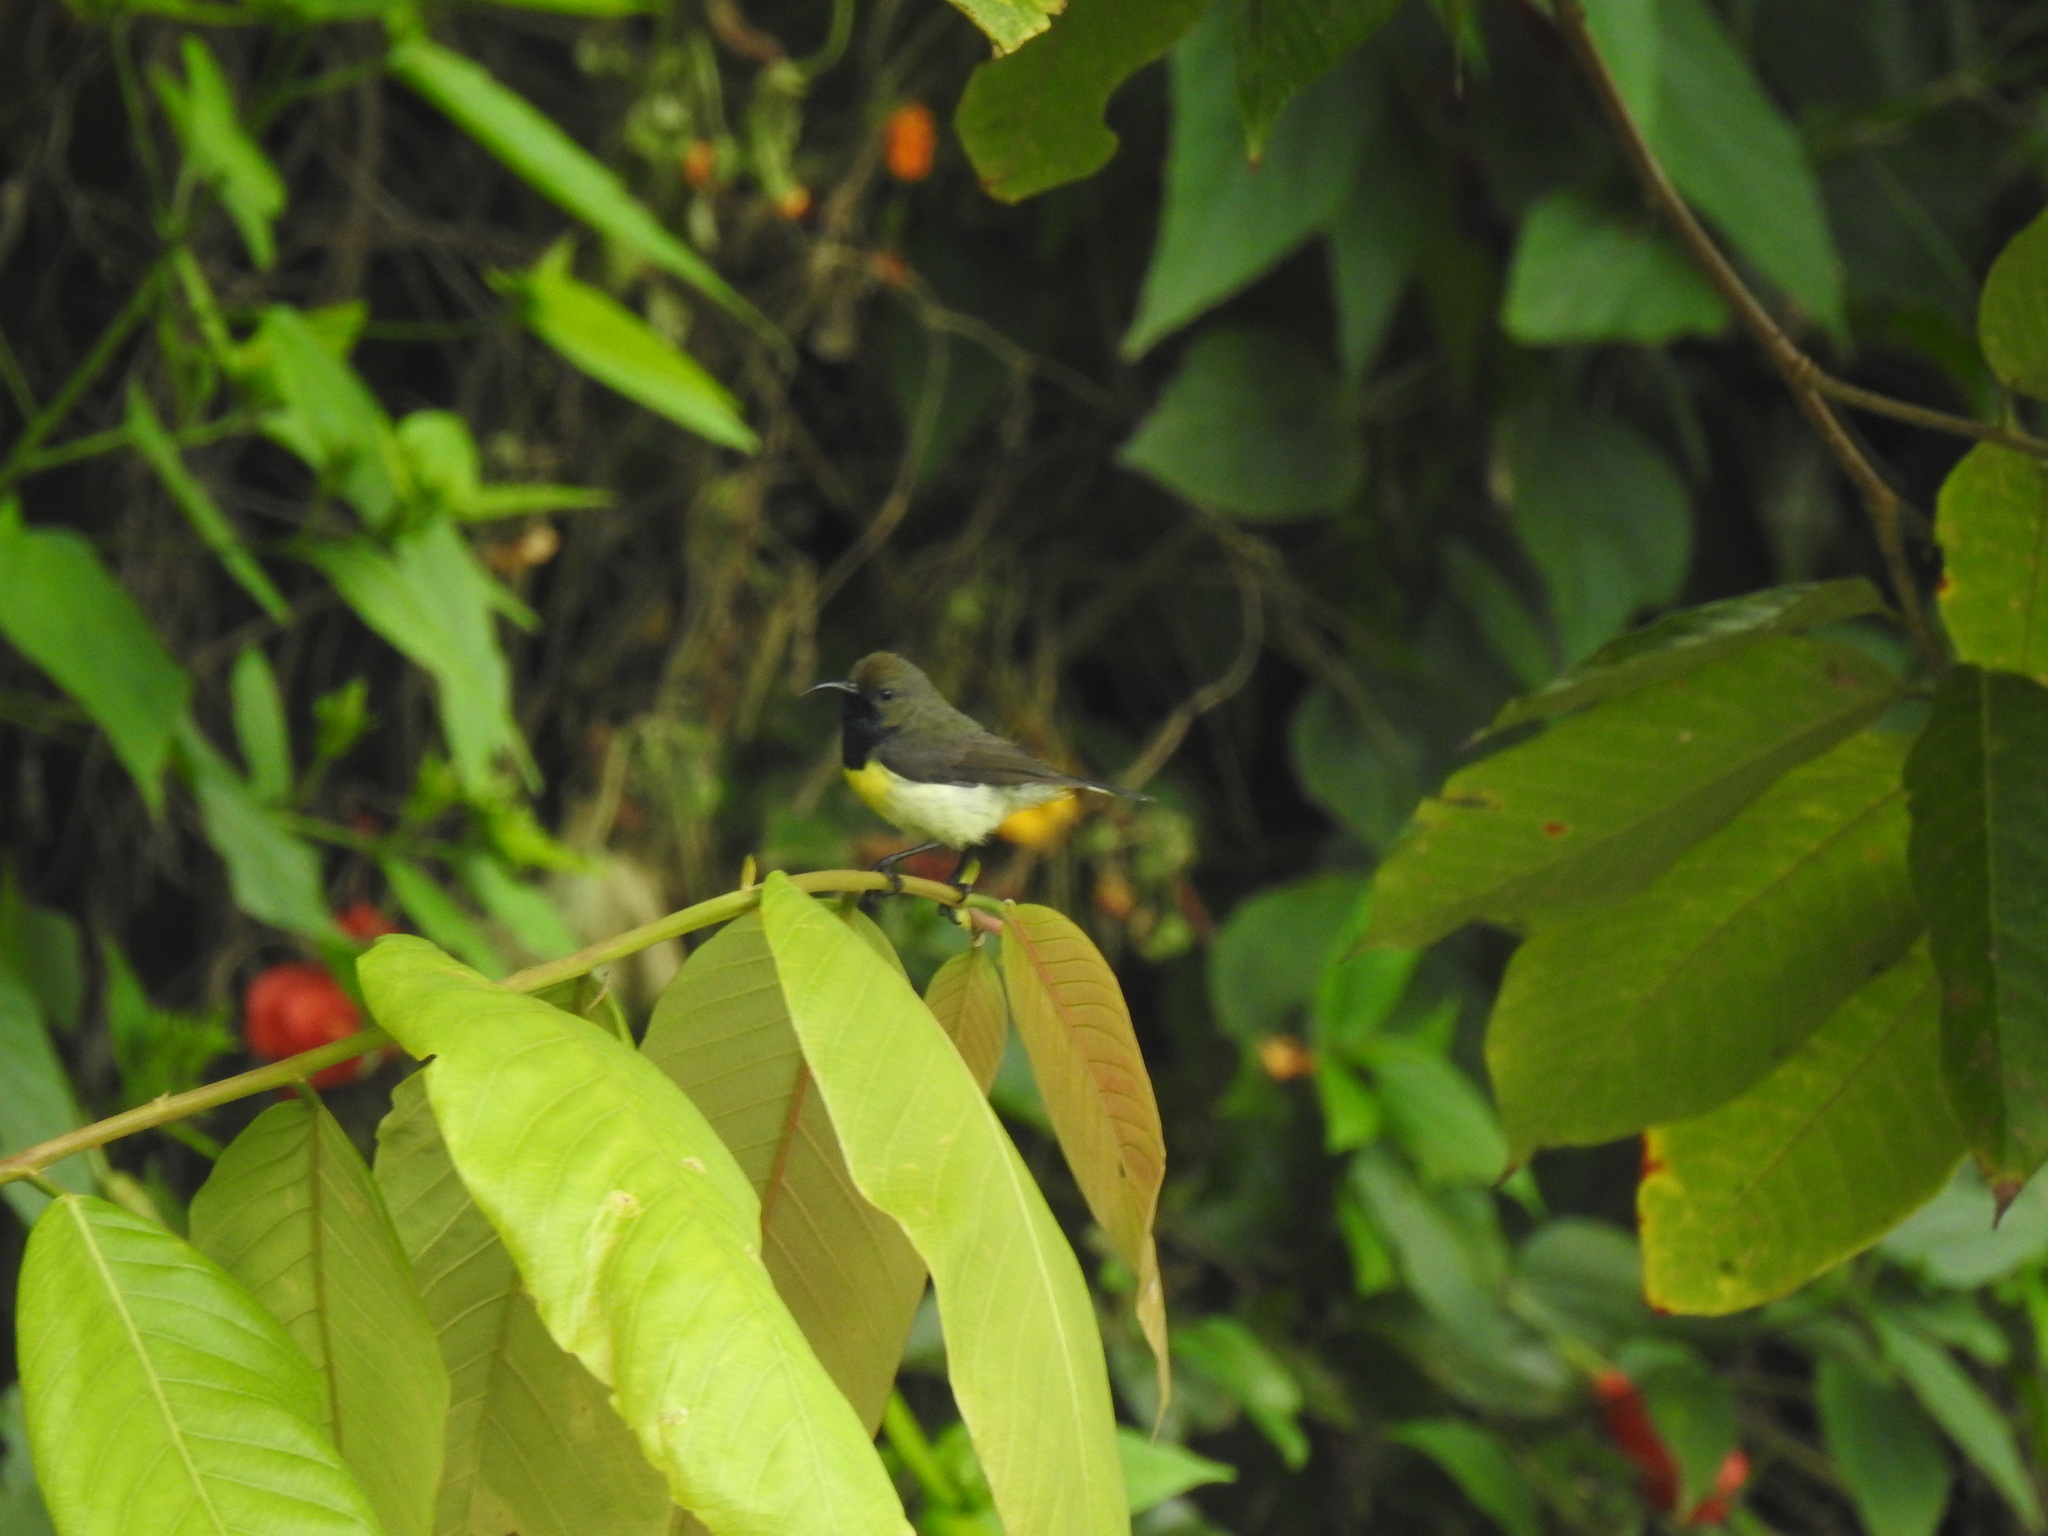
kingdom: Animalia
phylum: Chordata
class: Aves
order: Passeriformes
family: Nectariniidae
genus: Anabathmis
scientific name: Anabathmis newtonii
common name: Newton's sunbird
